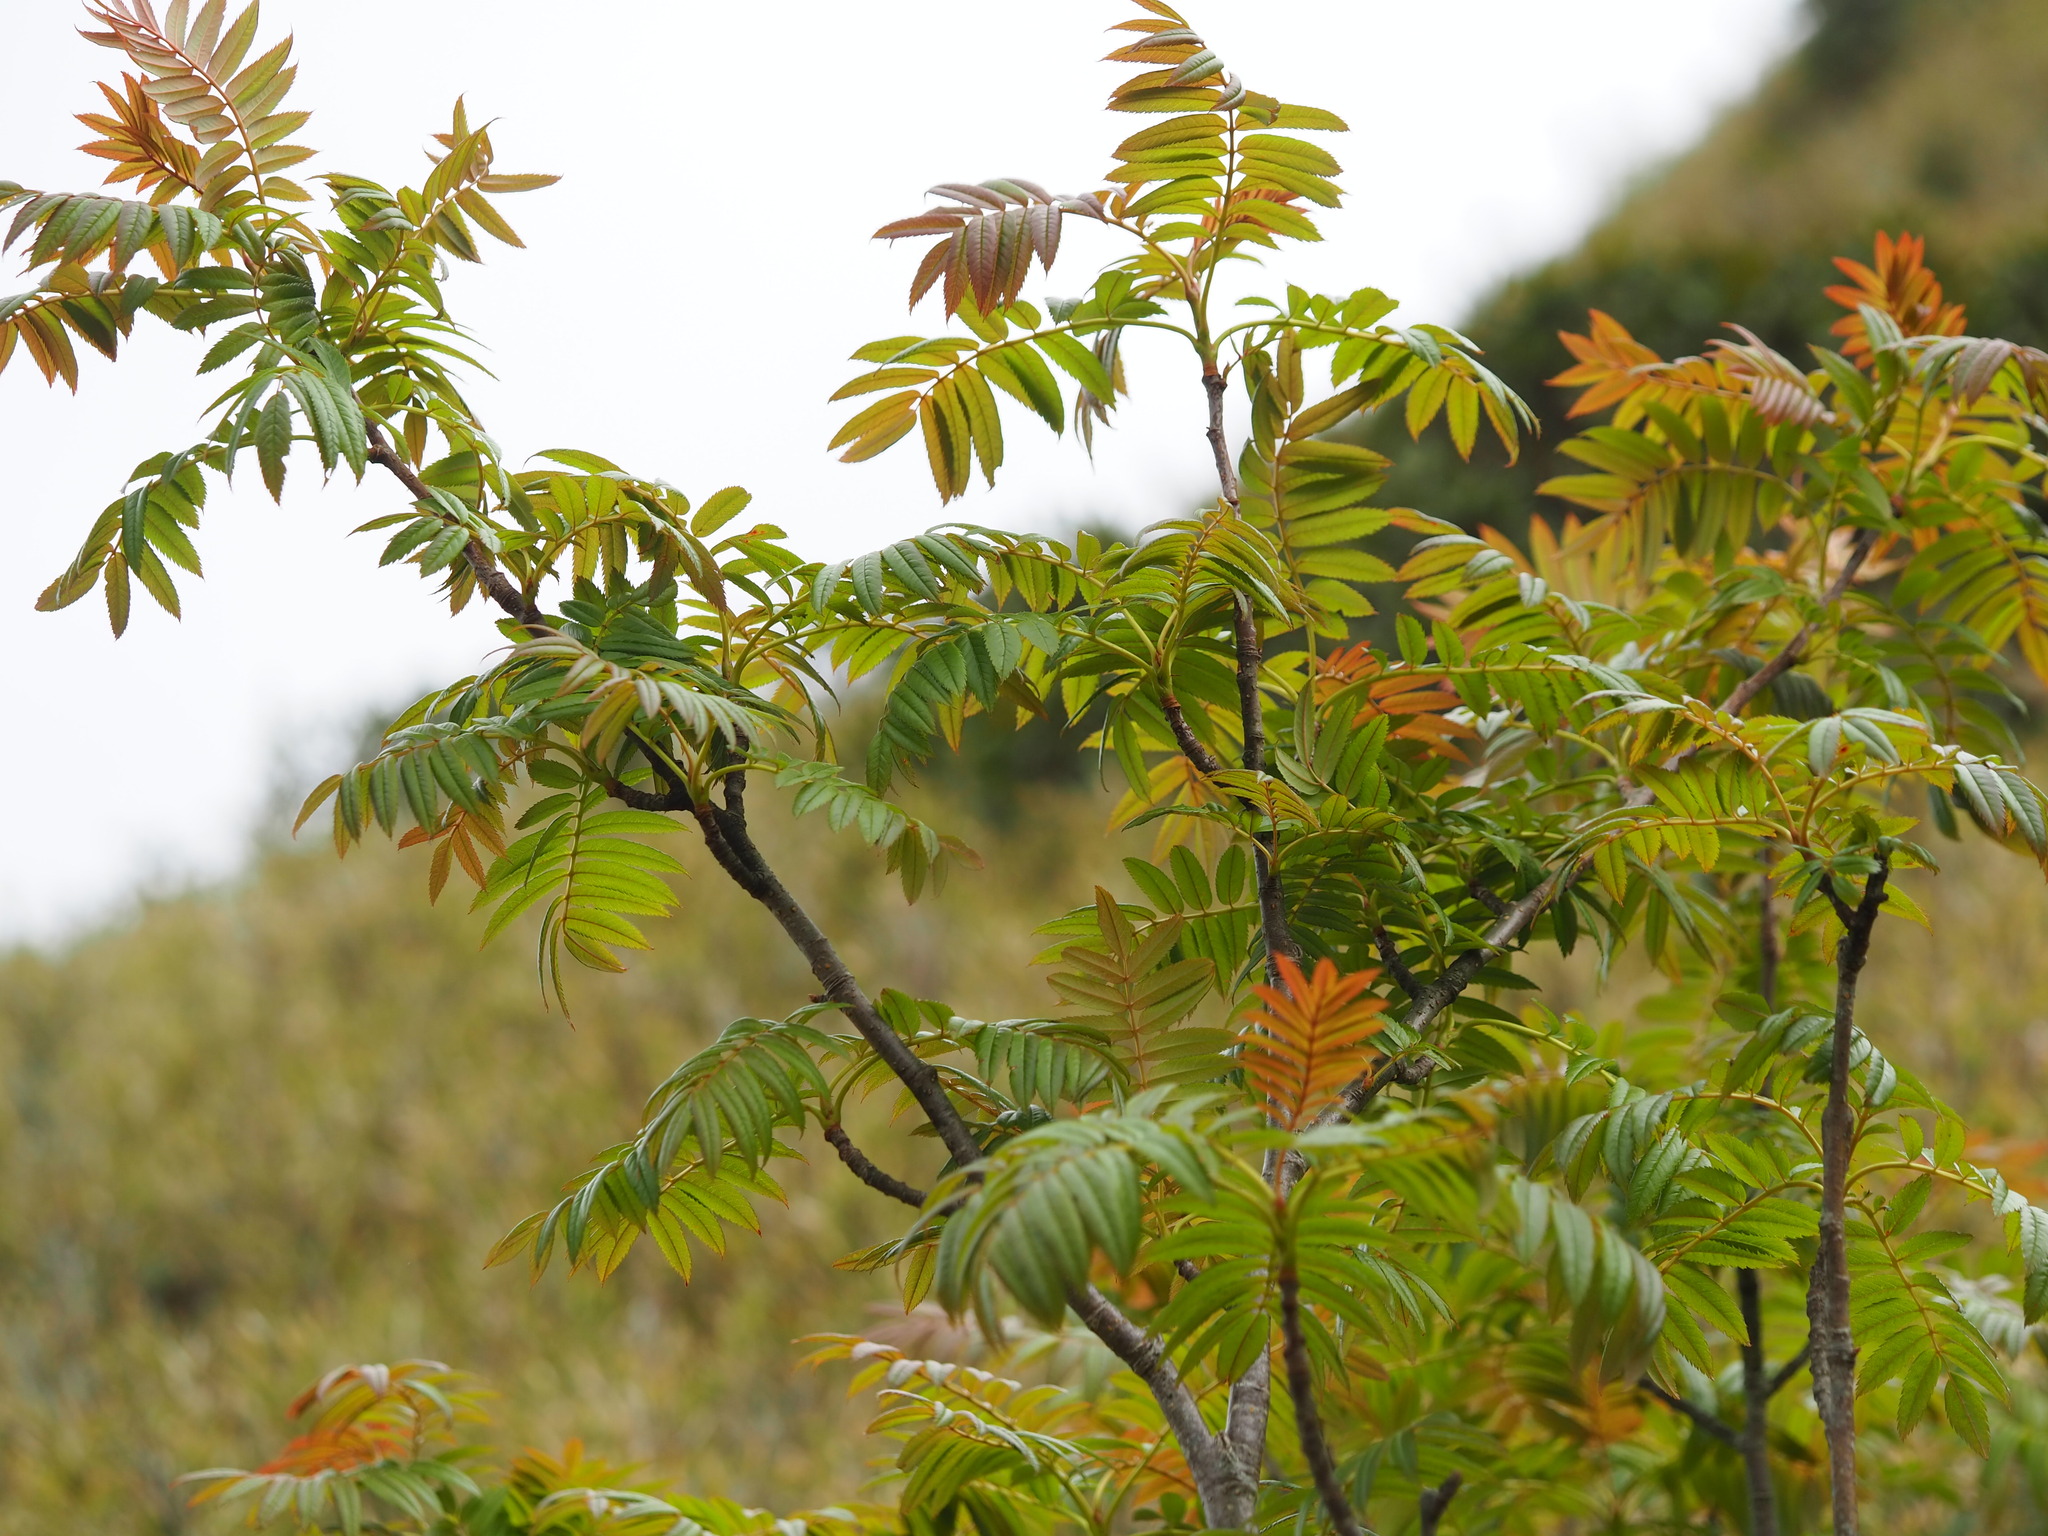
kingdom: Plantae
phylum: Tracheophyta
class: Magnoliopsida
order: Rosales
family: Rosaceae
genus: Sorbus
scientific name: Sorbus randaiensis
